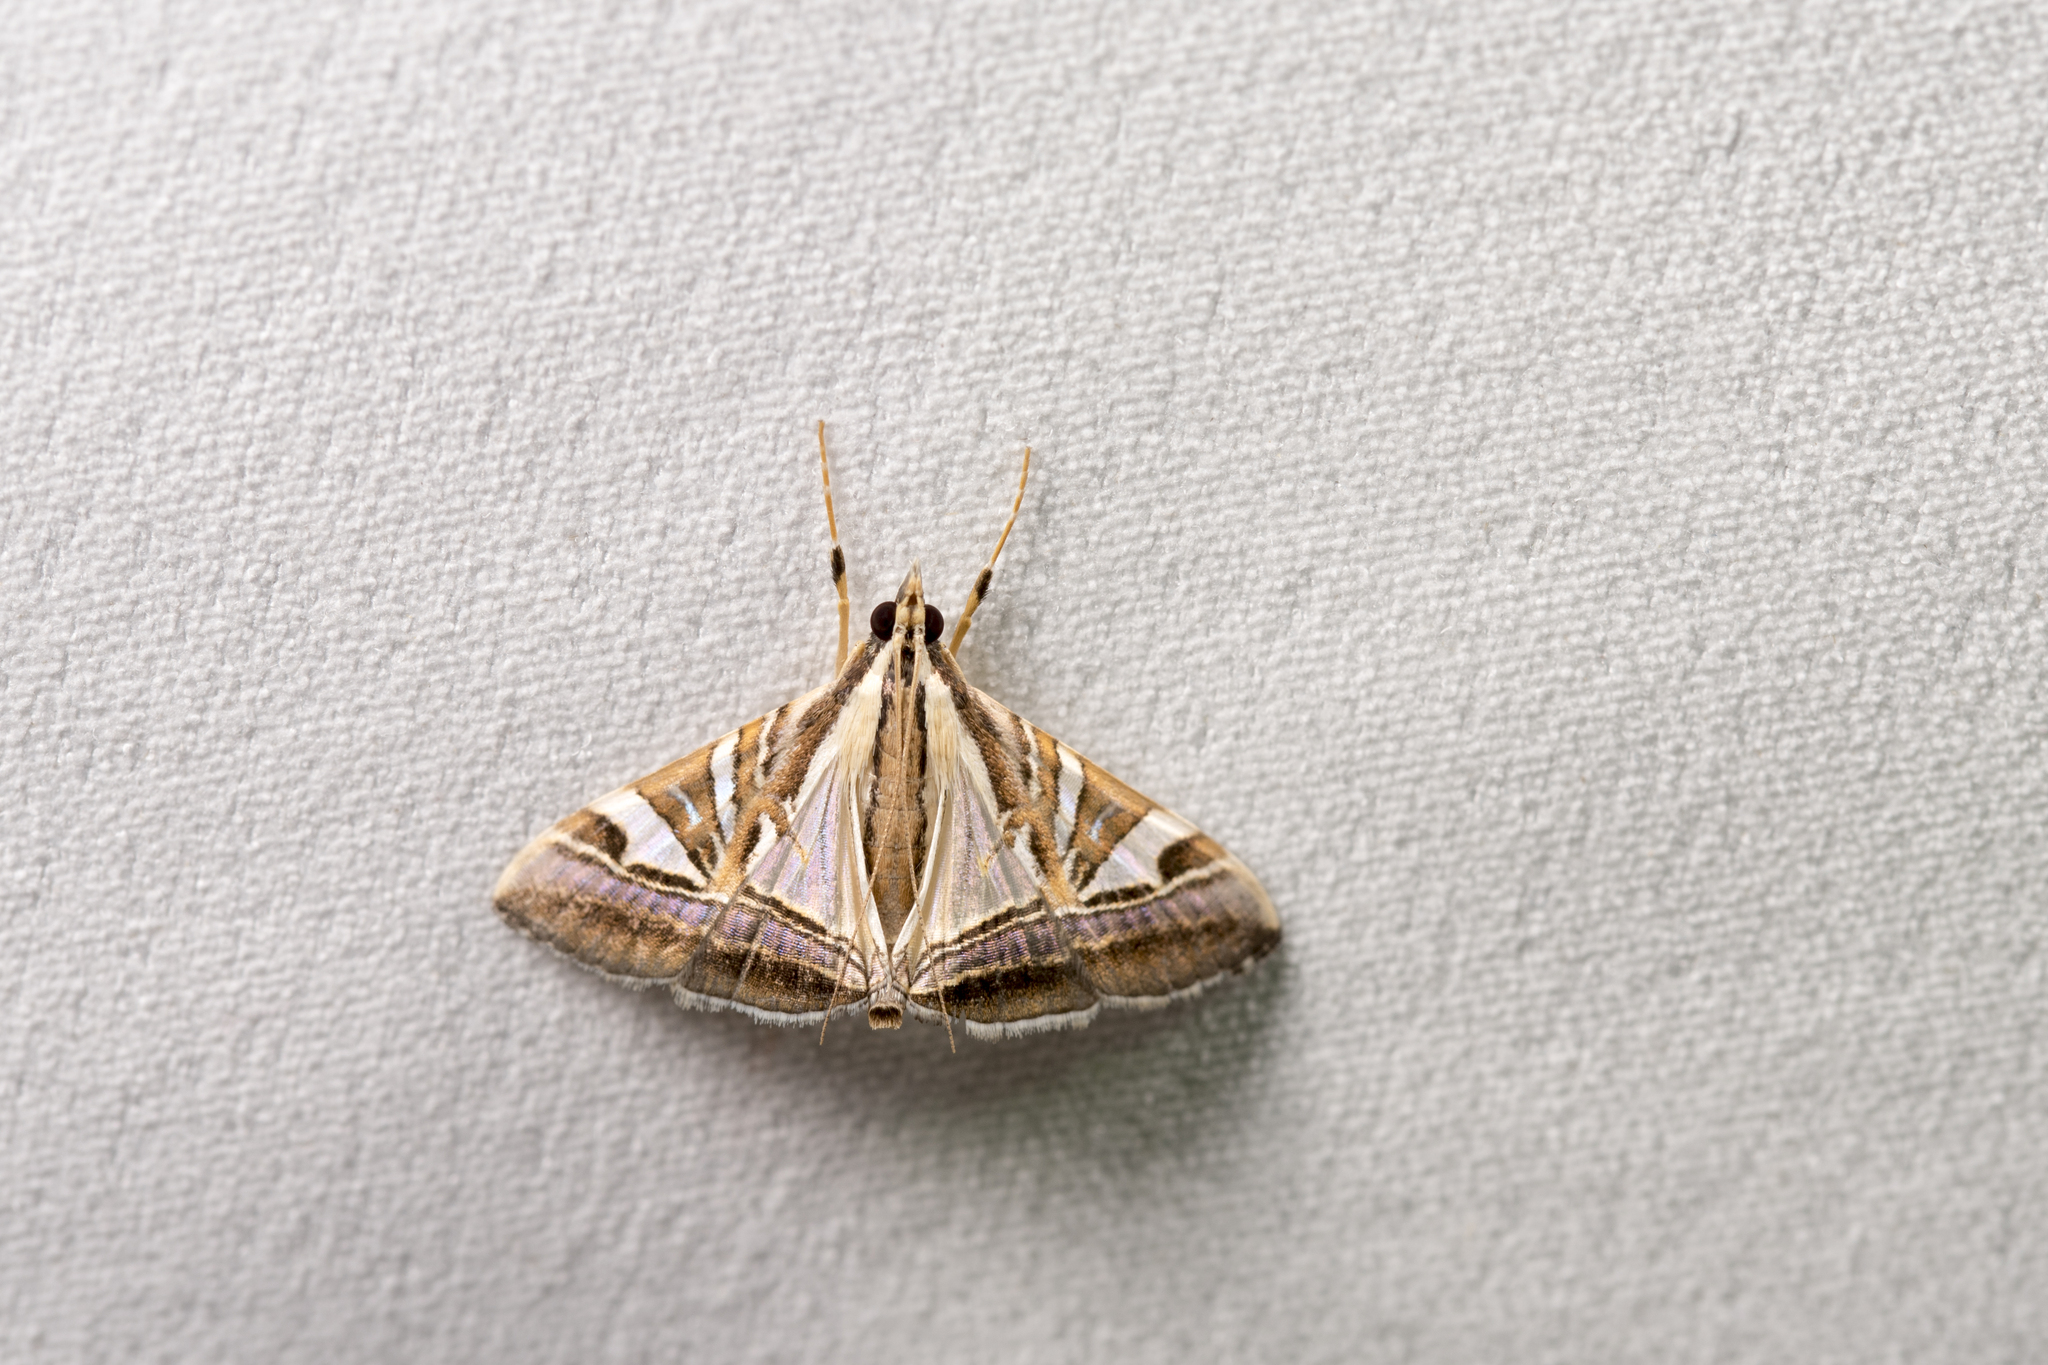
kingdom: Animalia
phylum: Arthropoda
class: Insecta
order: Lepidoptera
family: Crambidae
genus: Agrioglypta
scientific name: Agrioglypta itysalis
